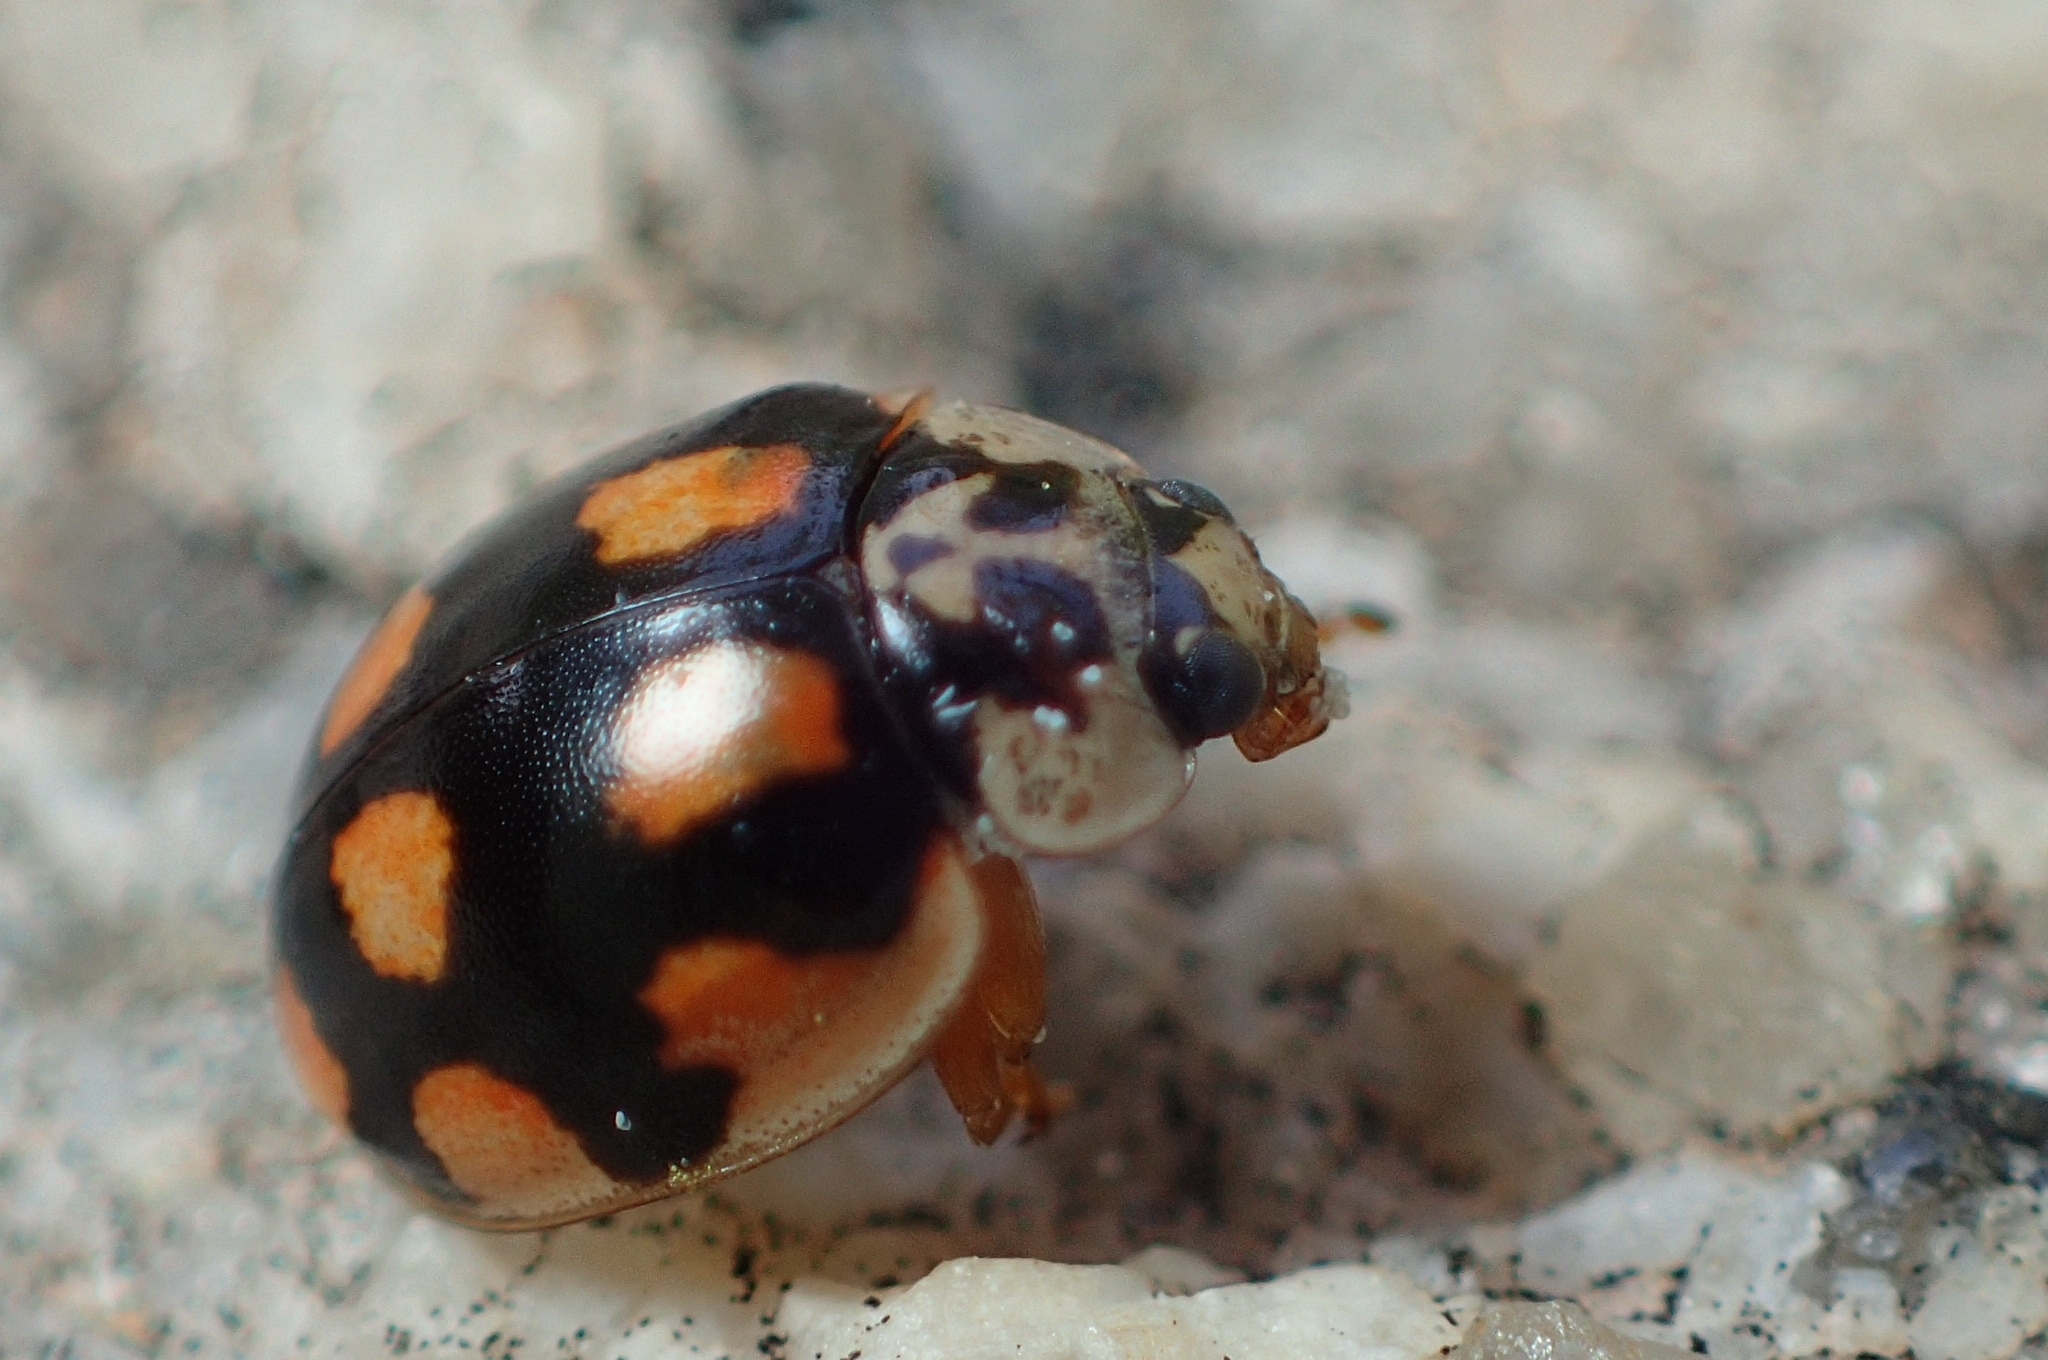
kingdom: Animalia
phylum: Arthropoda
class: Insecta
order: Coleoptera
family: Coccinellidae
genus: Adalia
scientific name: Adalia decempunctata
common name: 10-spot ladybird
